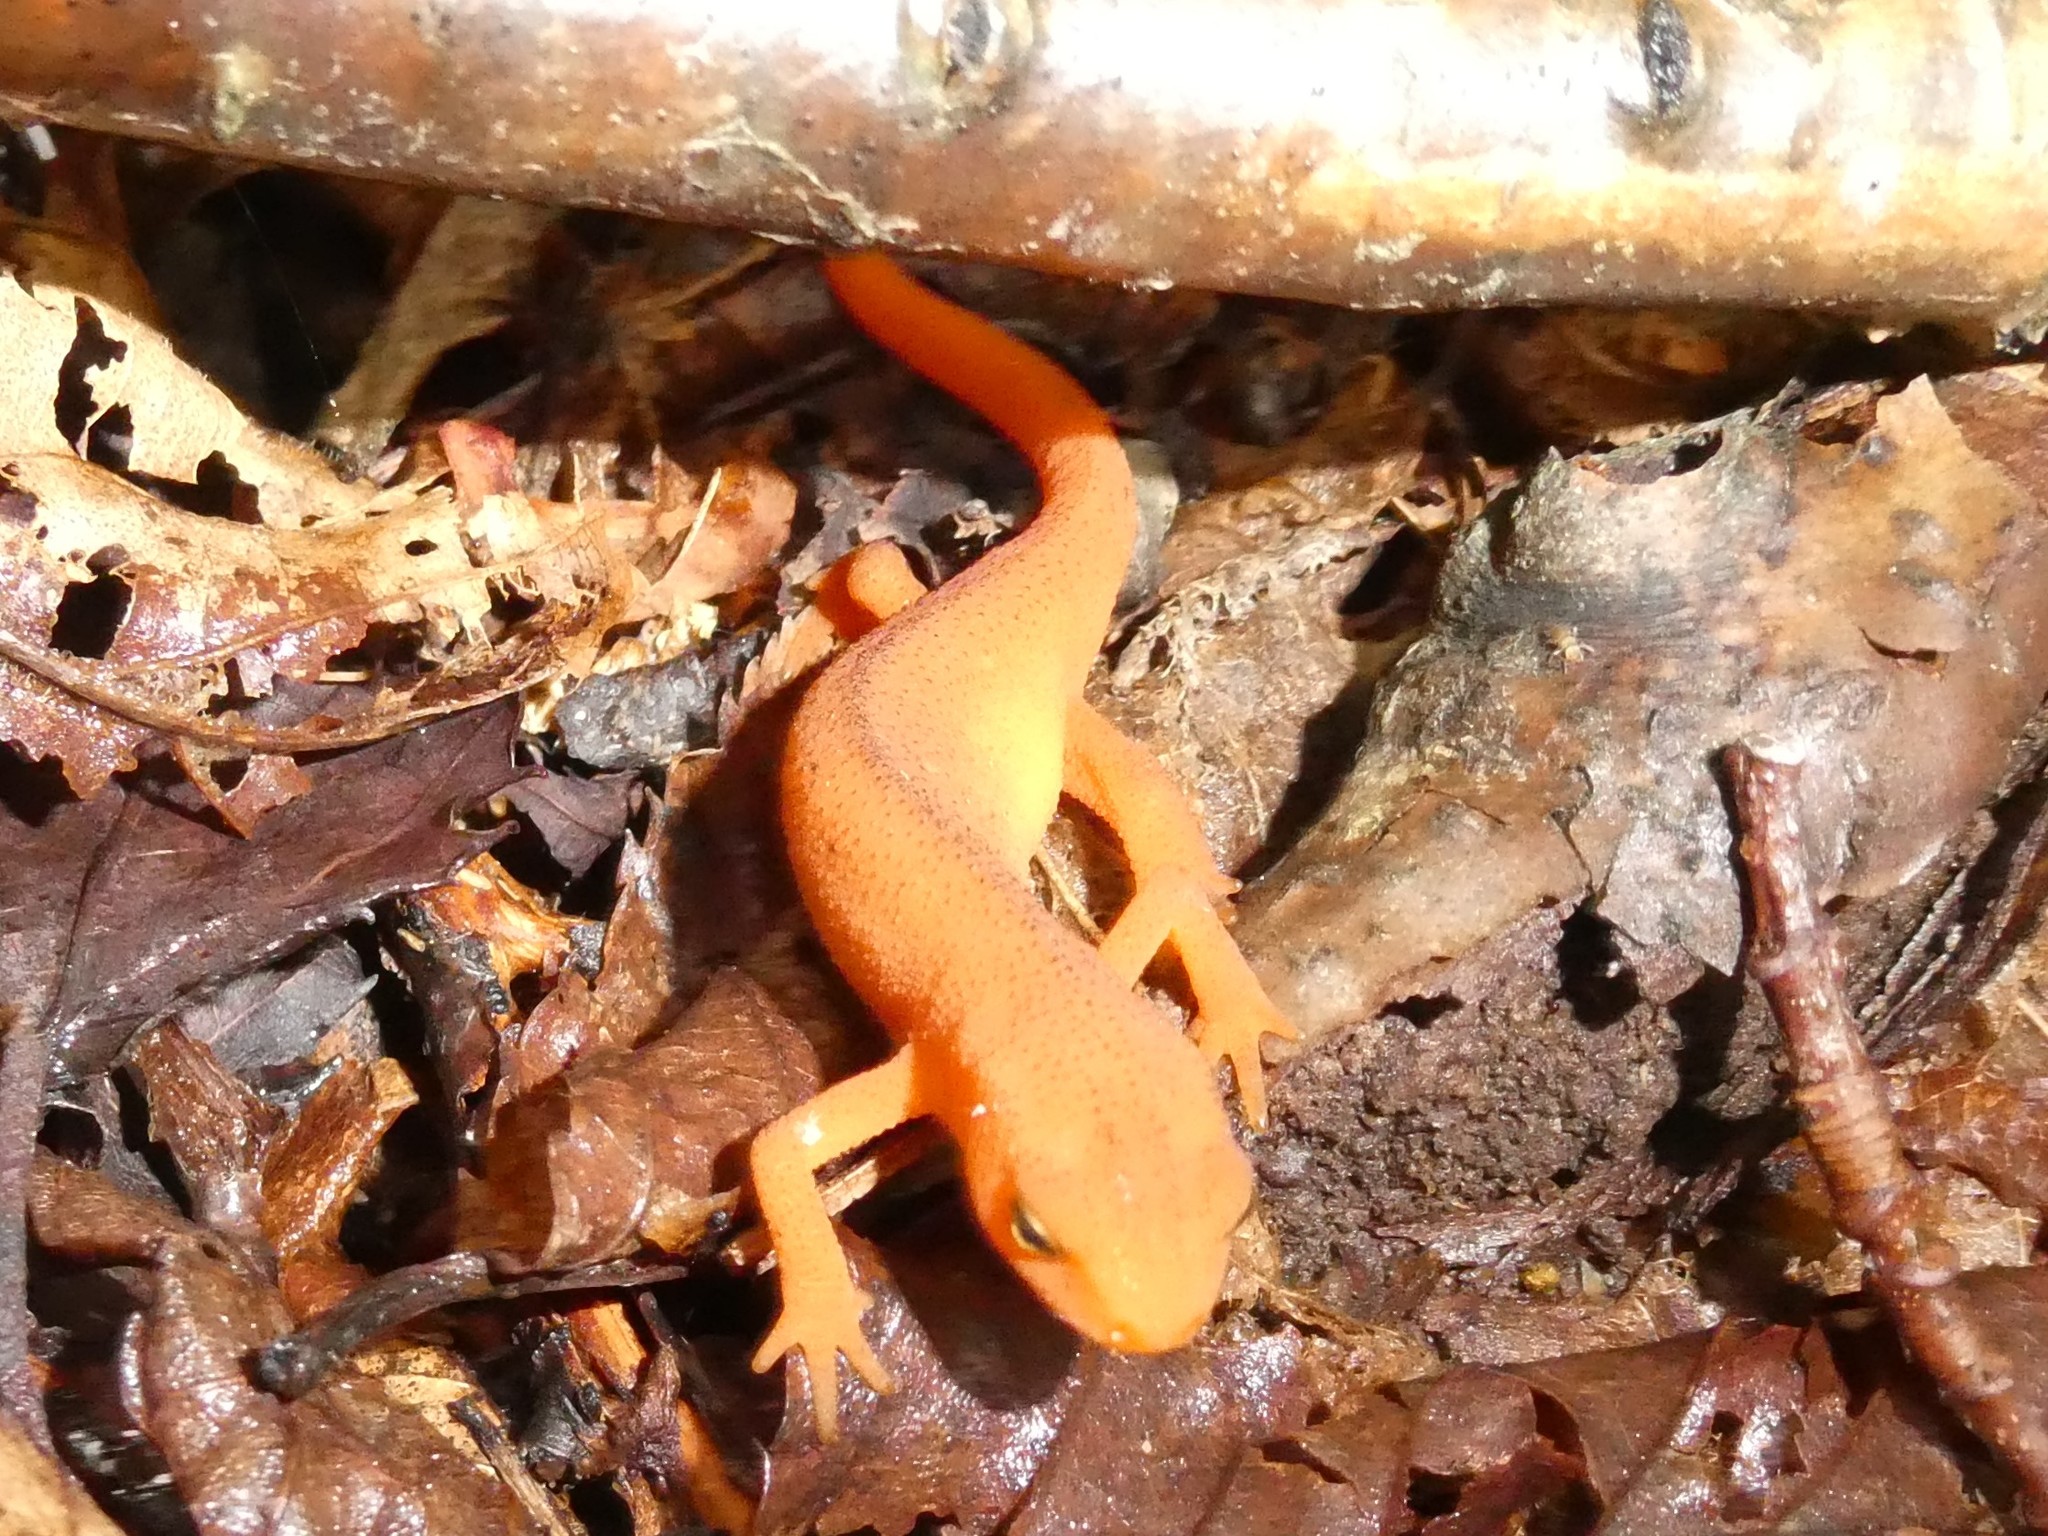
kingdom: Animalia
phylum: Chordata
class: Amphibia
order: Caudata
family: Salamandridae
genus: Notophthalmus
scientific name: Notophthalmus viridescens
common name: Eastern newt
